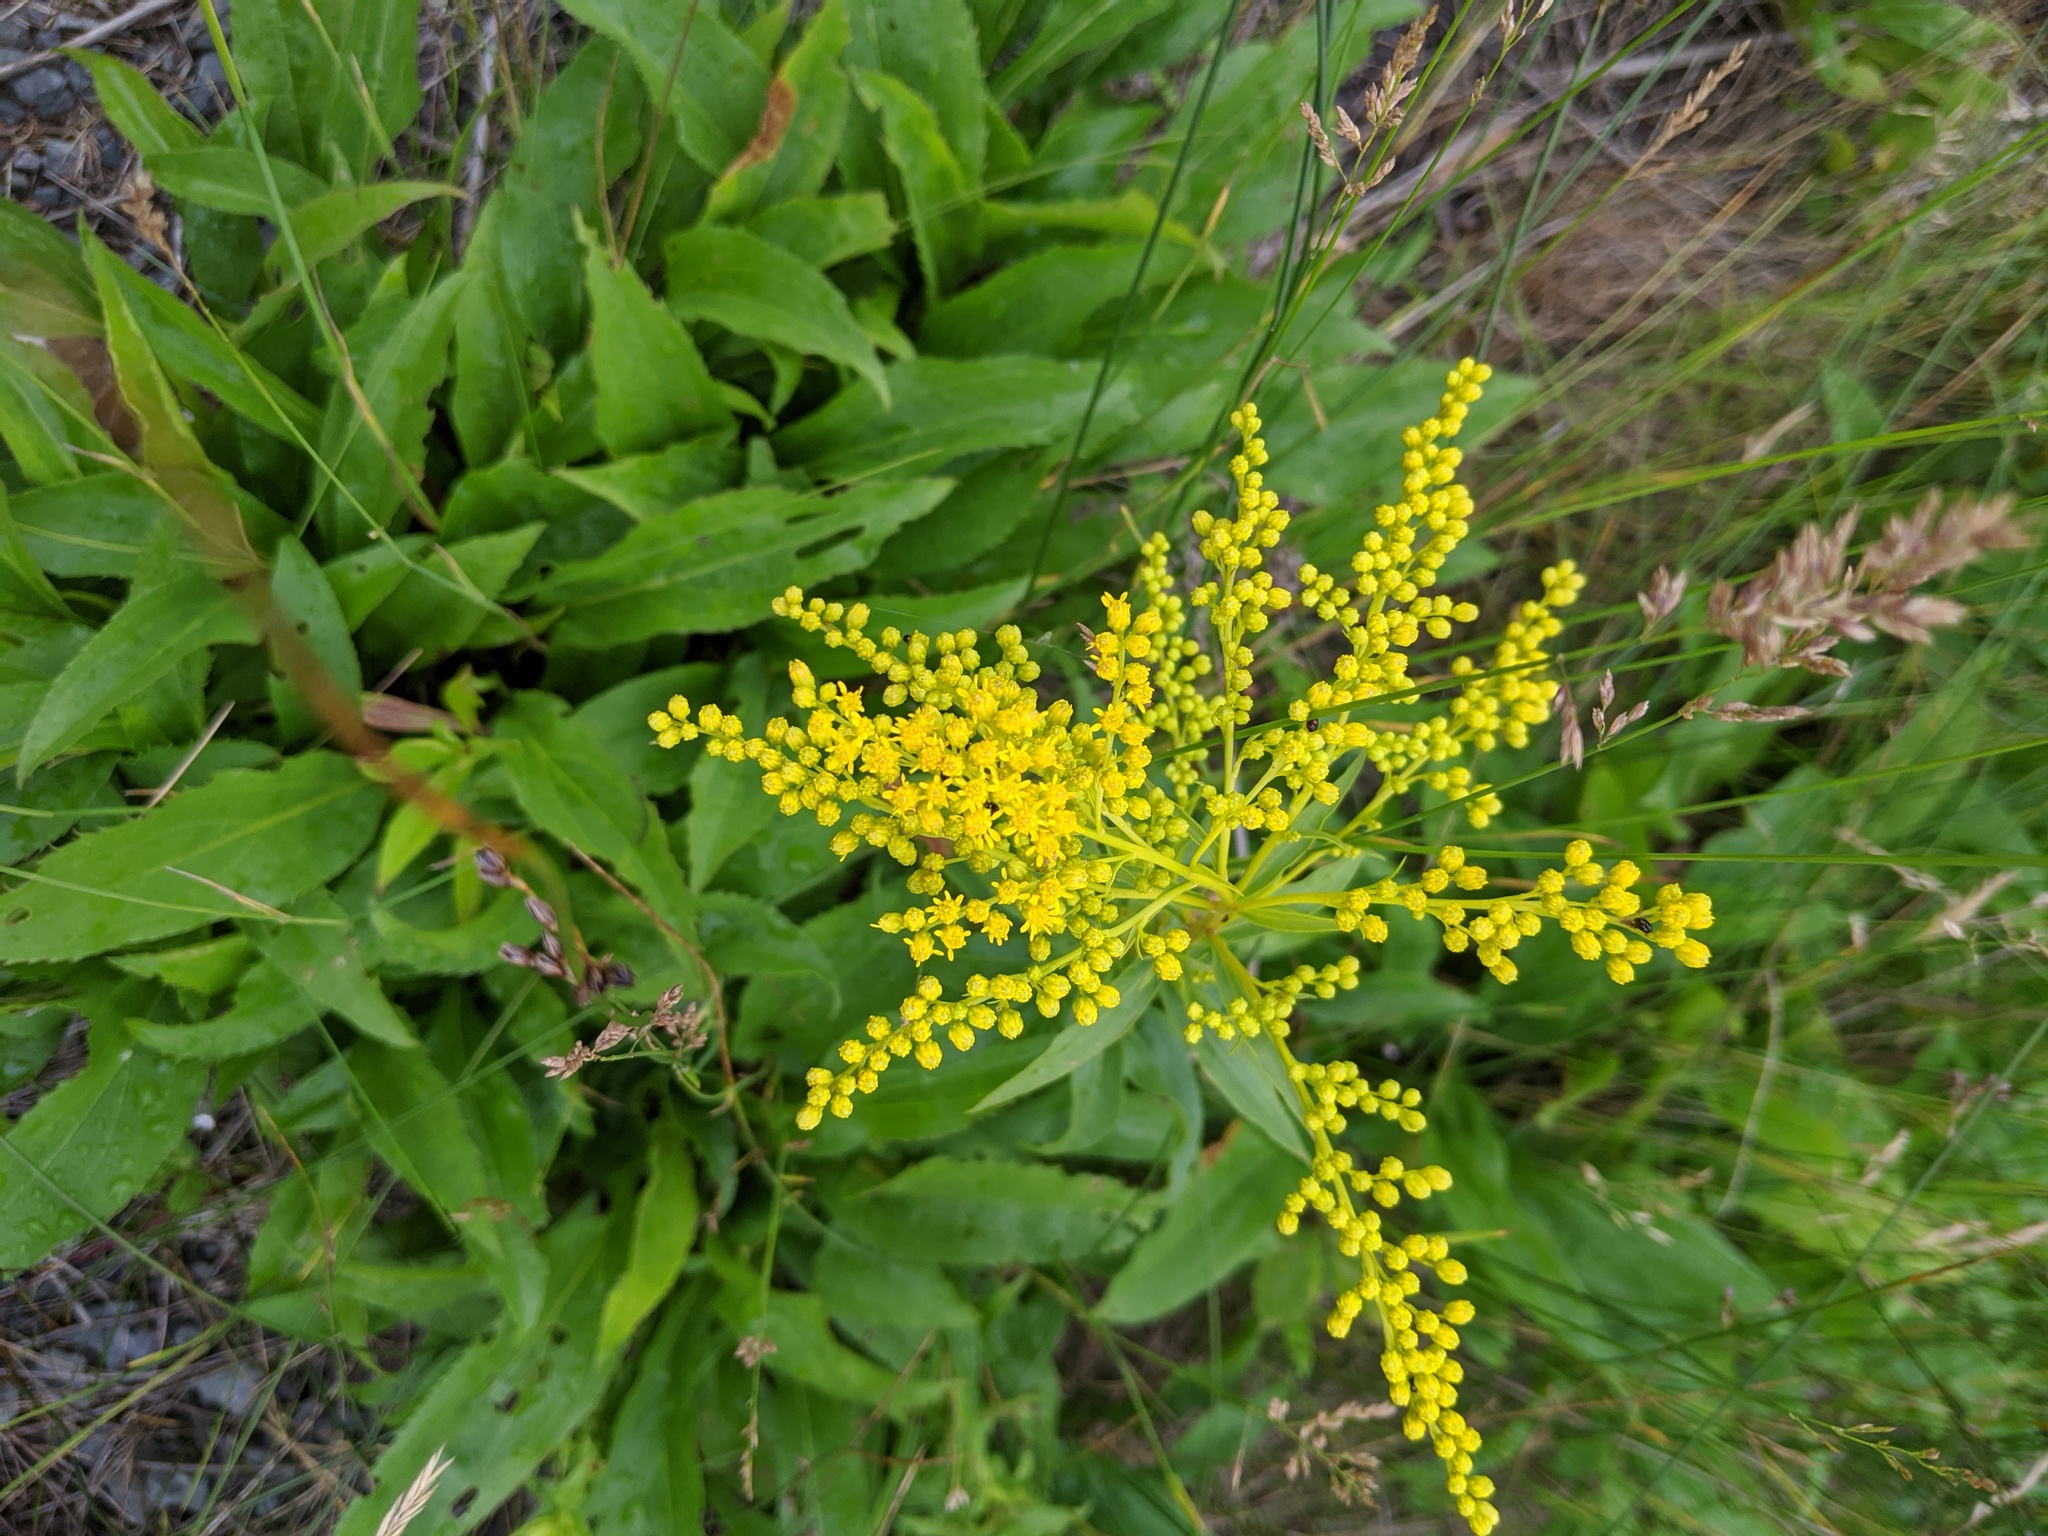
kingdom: Plantae
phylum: Tracheophyta
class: Magnoliopsida
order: Asterales
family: Asteraceae
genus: Solidago
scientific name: Solidago juncea
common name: Early goldenrod
